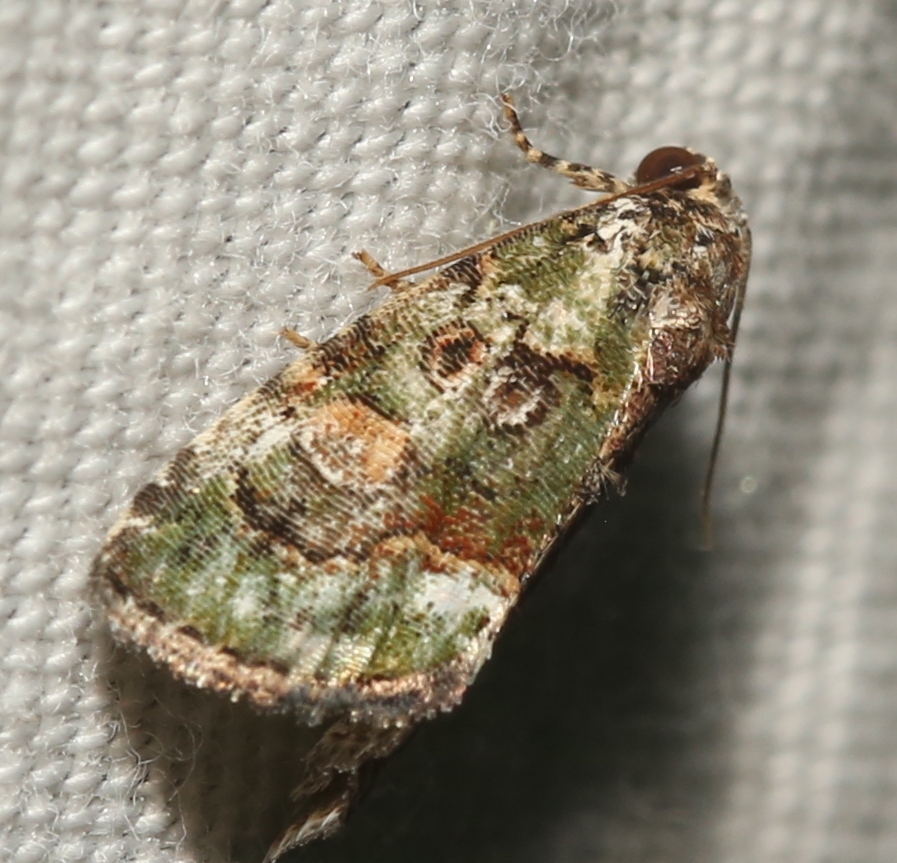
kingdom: Animalia
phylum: Arthropoda
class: Insecta
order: Lepidoptera
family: Noctuidae
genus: Lithacodia
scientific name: Lithacodia musta
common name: Small mossy glyph
